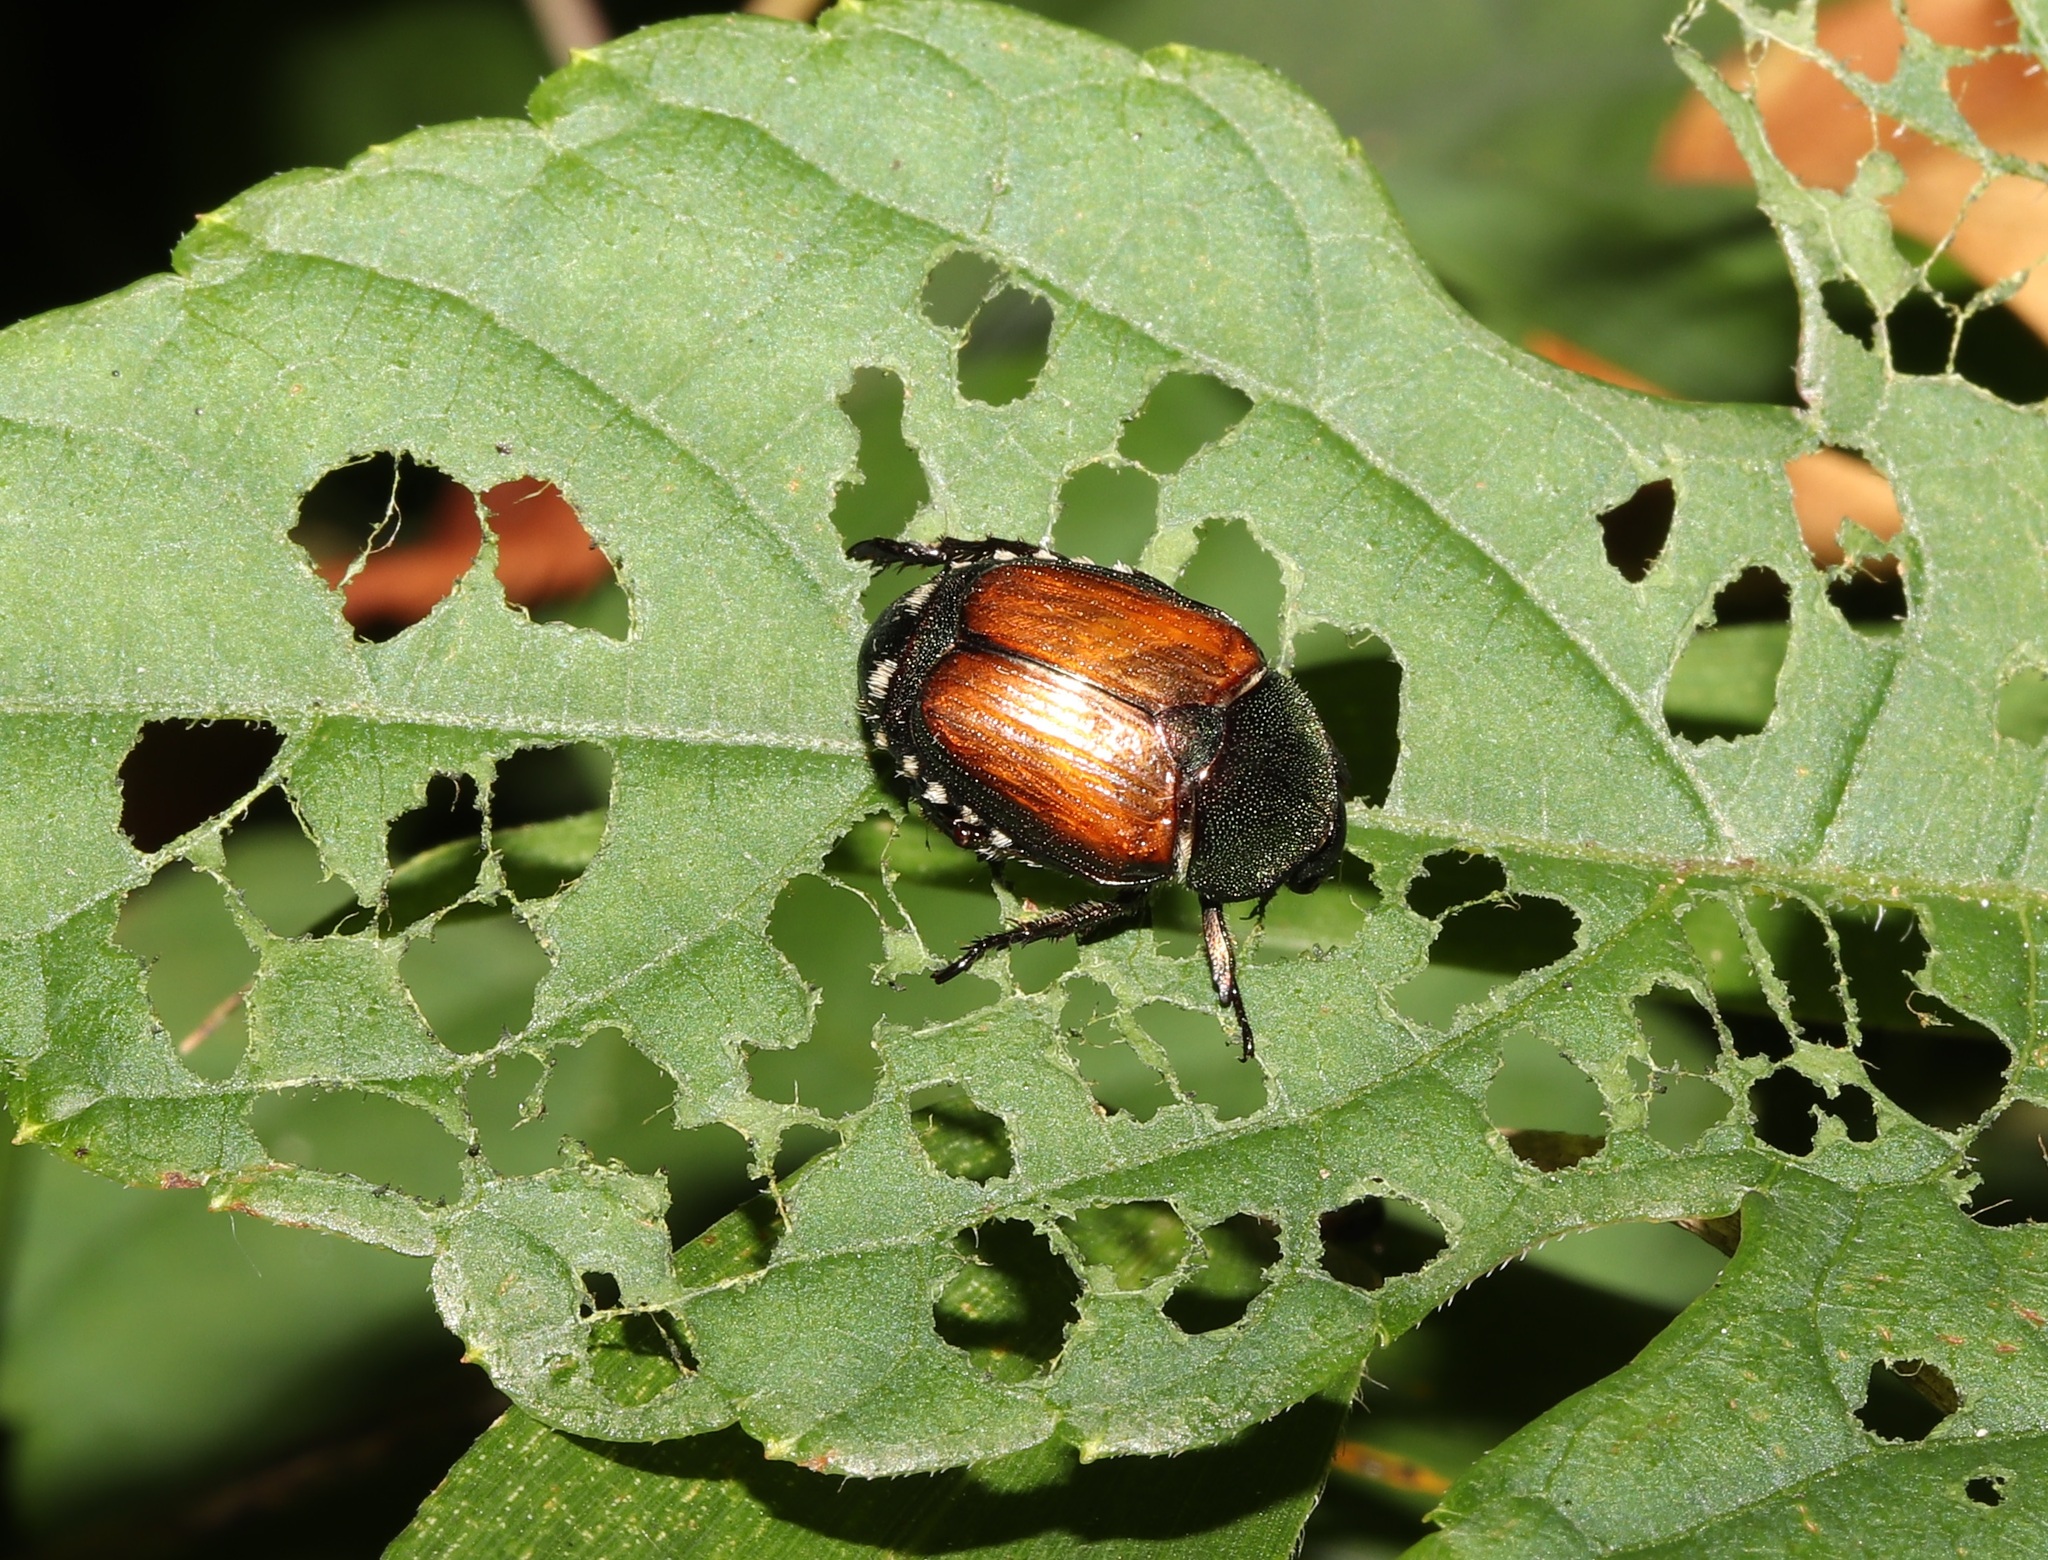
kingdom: Animalia
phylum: Arthropoda
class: Insecta
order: Coleoptera
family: Scarabaeidae
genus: Popillia
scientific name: Popillia japonica
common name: Japanese beetle
